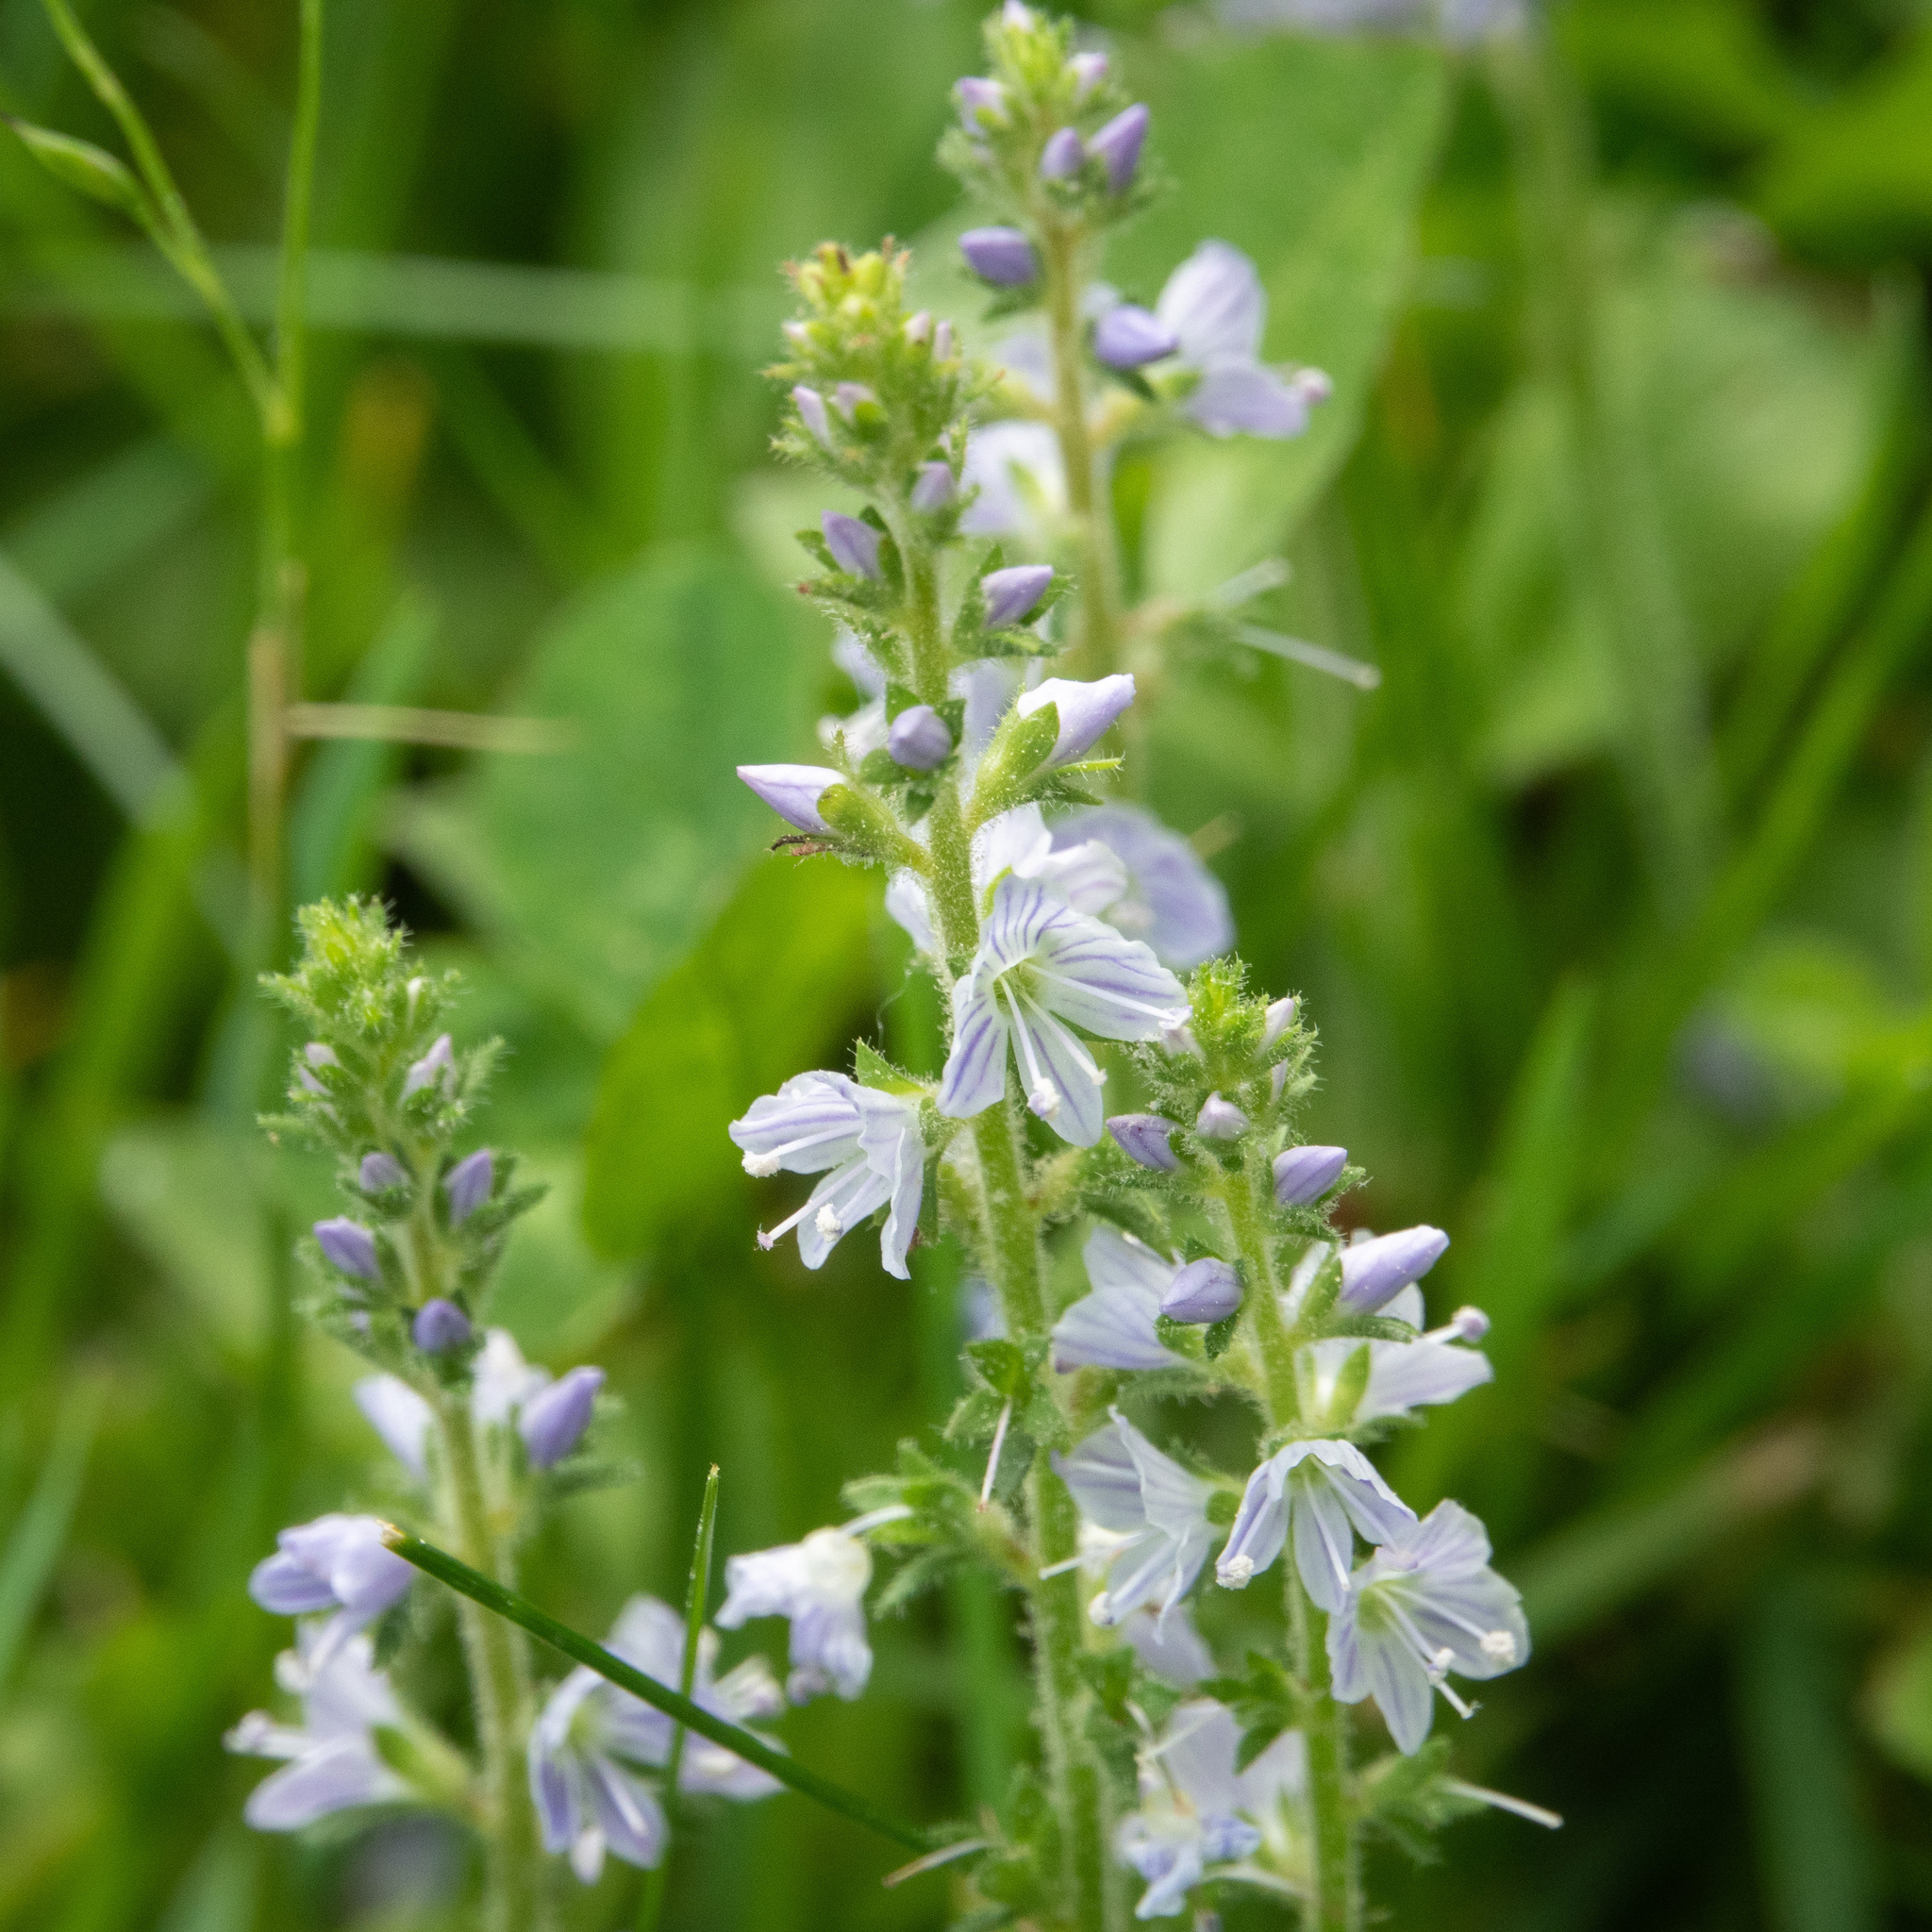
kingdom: Plantae
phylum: Tracheophyta
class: Magnoliopsida
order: Lamiales
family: Plantaginaceae
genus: Veronica
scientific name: Veronica officinalis
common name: Common speedwell
